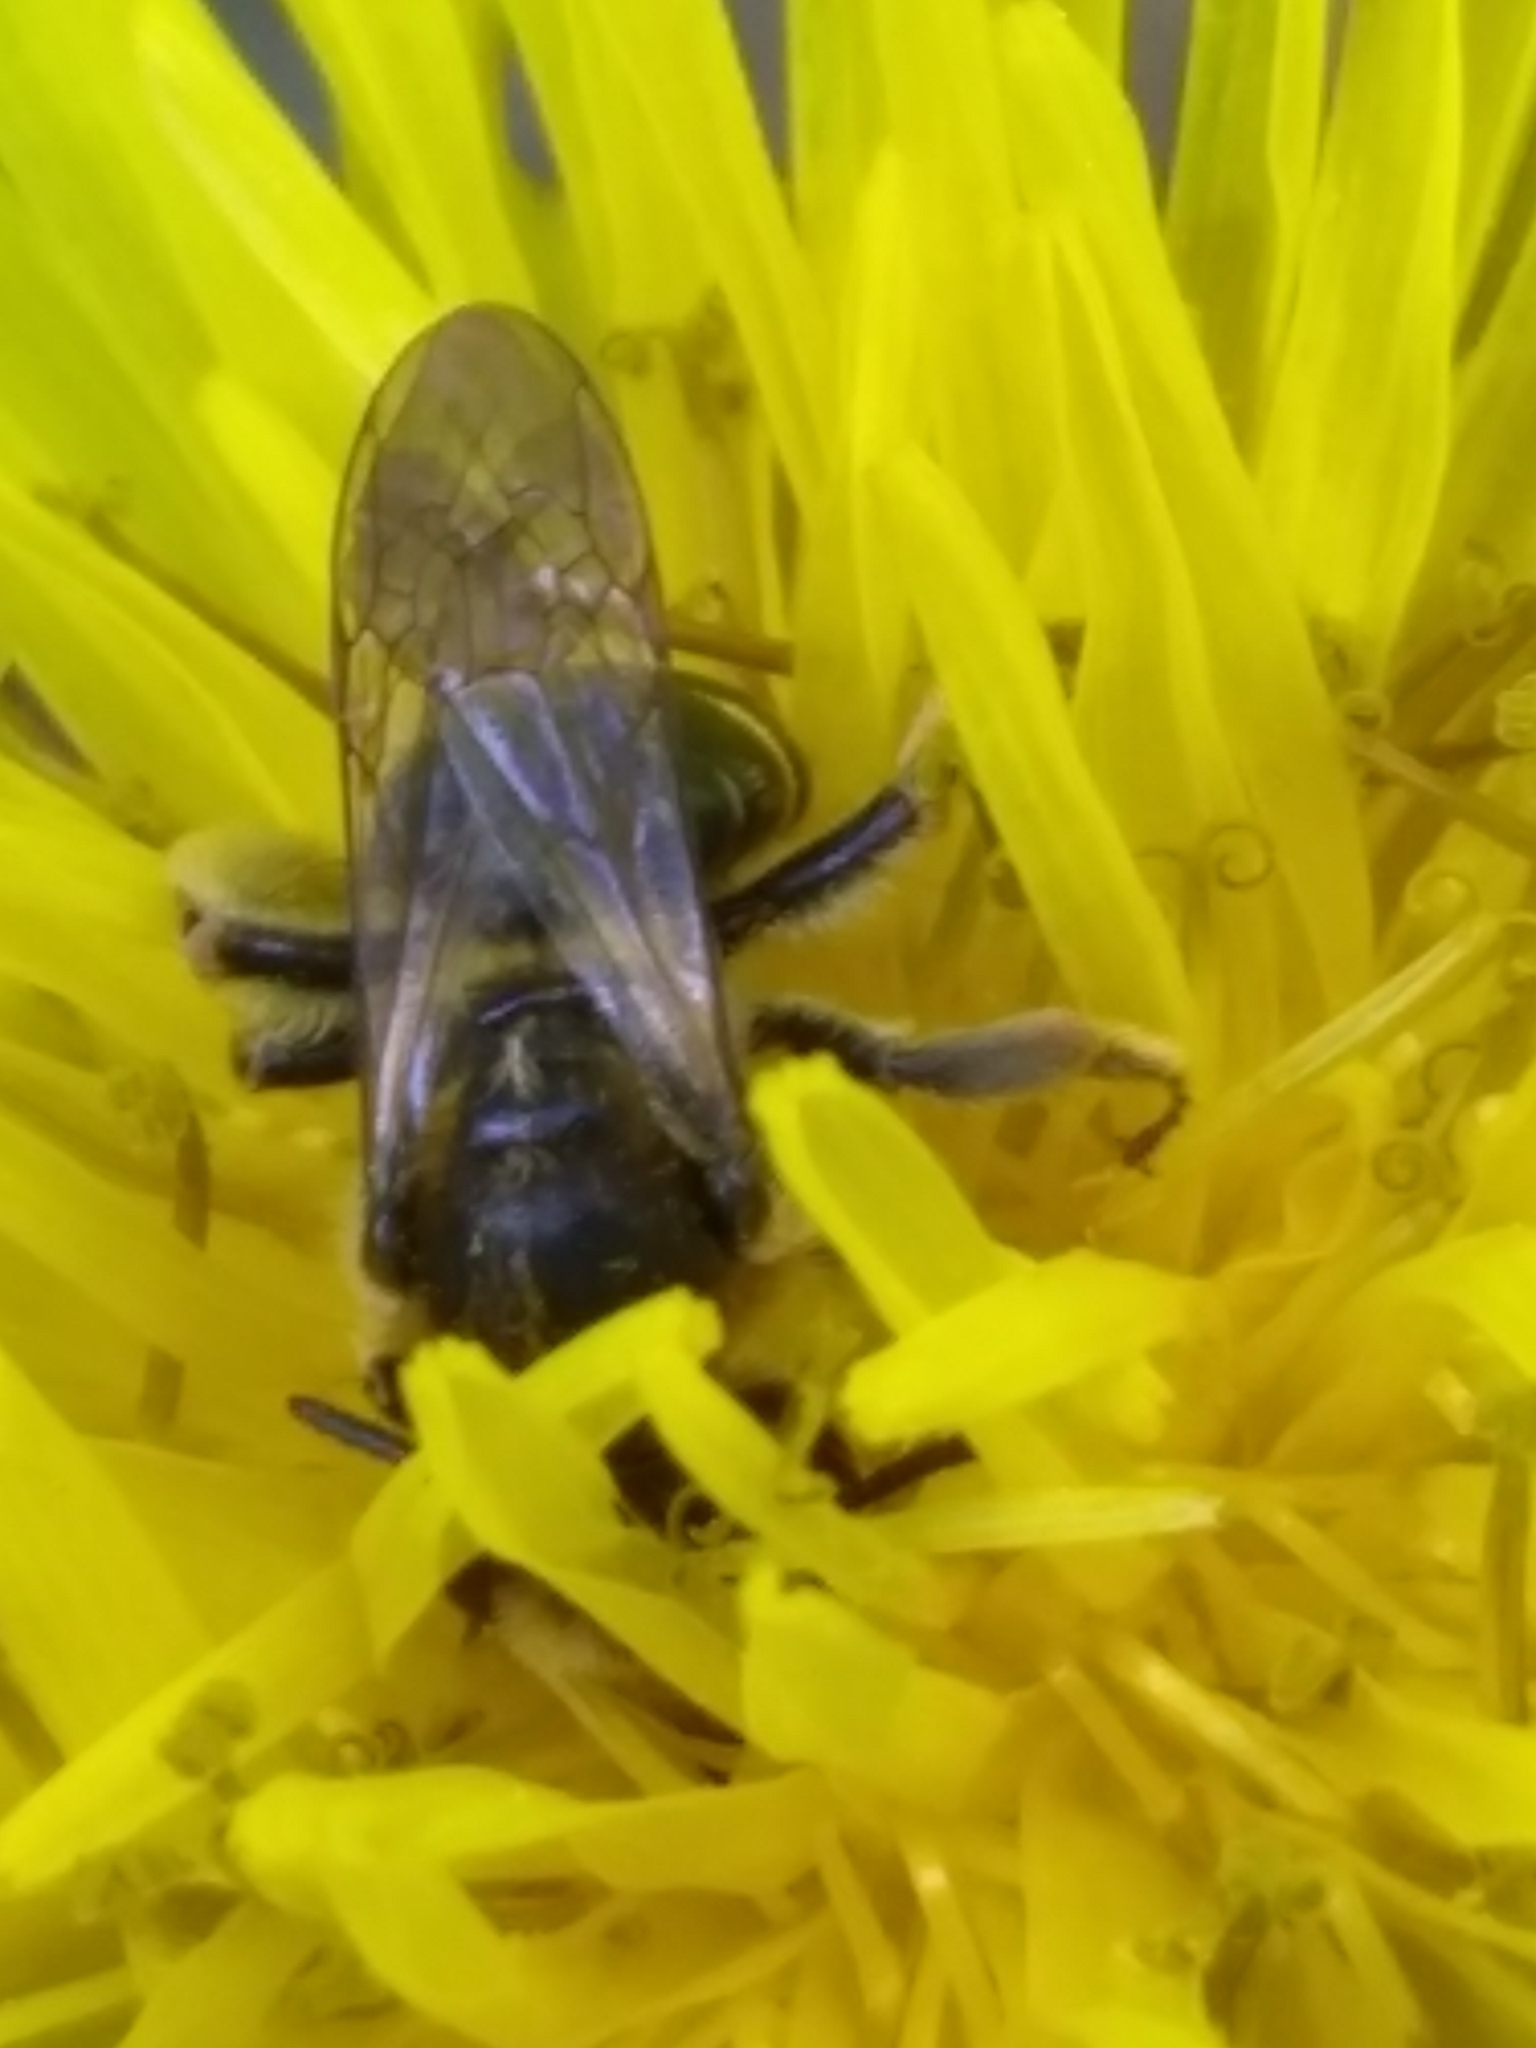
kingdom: Animalia
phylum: Arthropoda
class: Insecta
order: Hymenoptera
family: Andrenidae
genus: Andrena
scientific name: Andrena wilkella
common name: Wilke's mining bee
